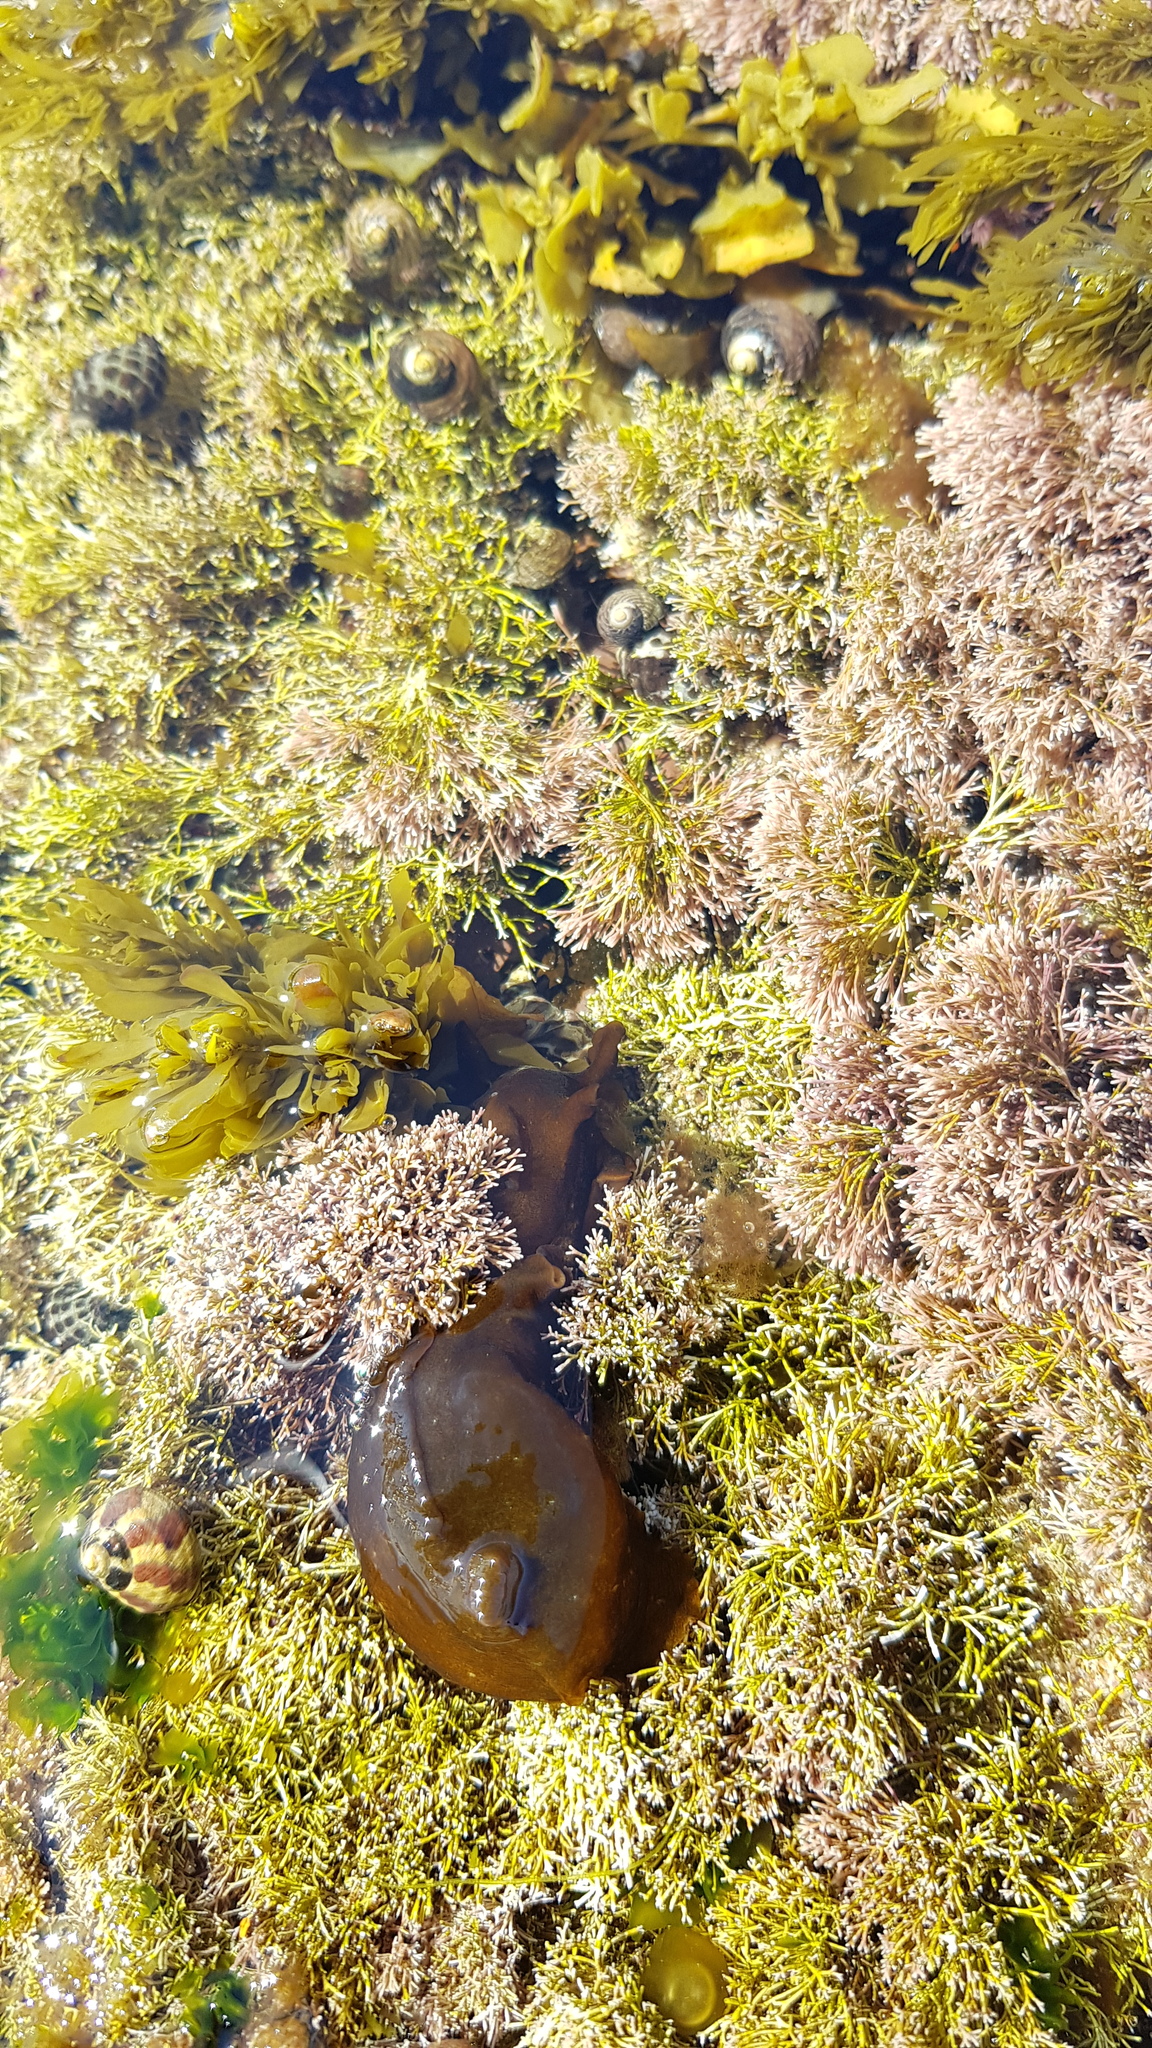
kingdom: Animalia
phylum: Mollusca
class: Gastropoda
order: Aplysiida
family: Aplysiidae
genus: Aplysia
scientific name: Aplysia juliana
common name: Walking sea hare
